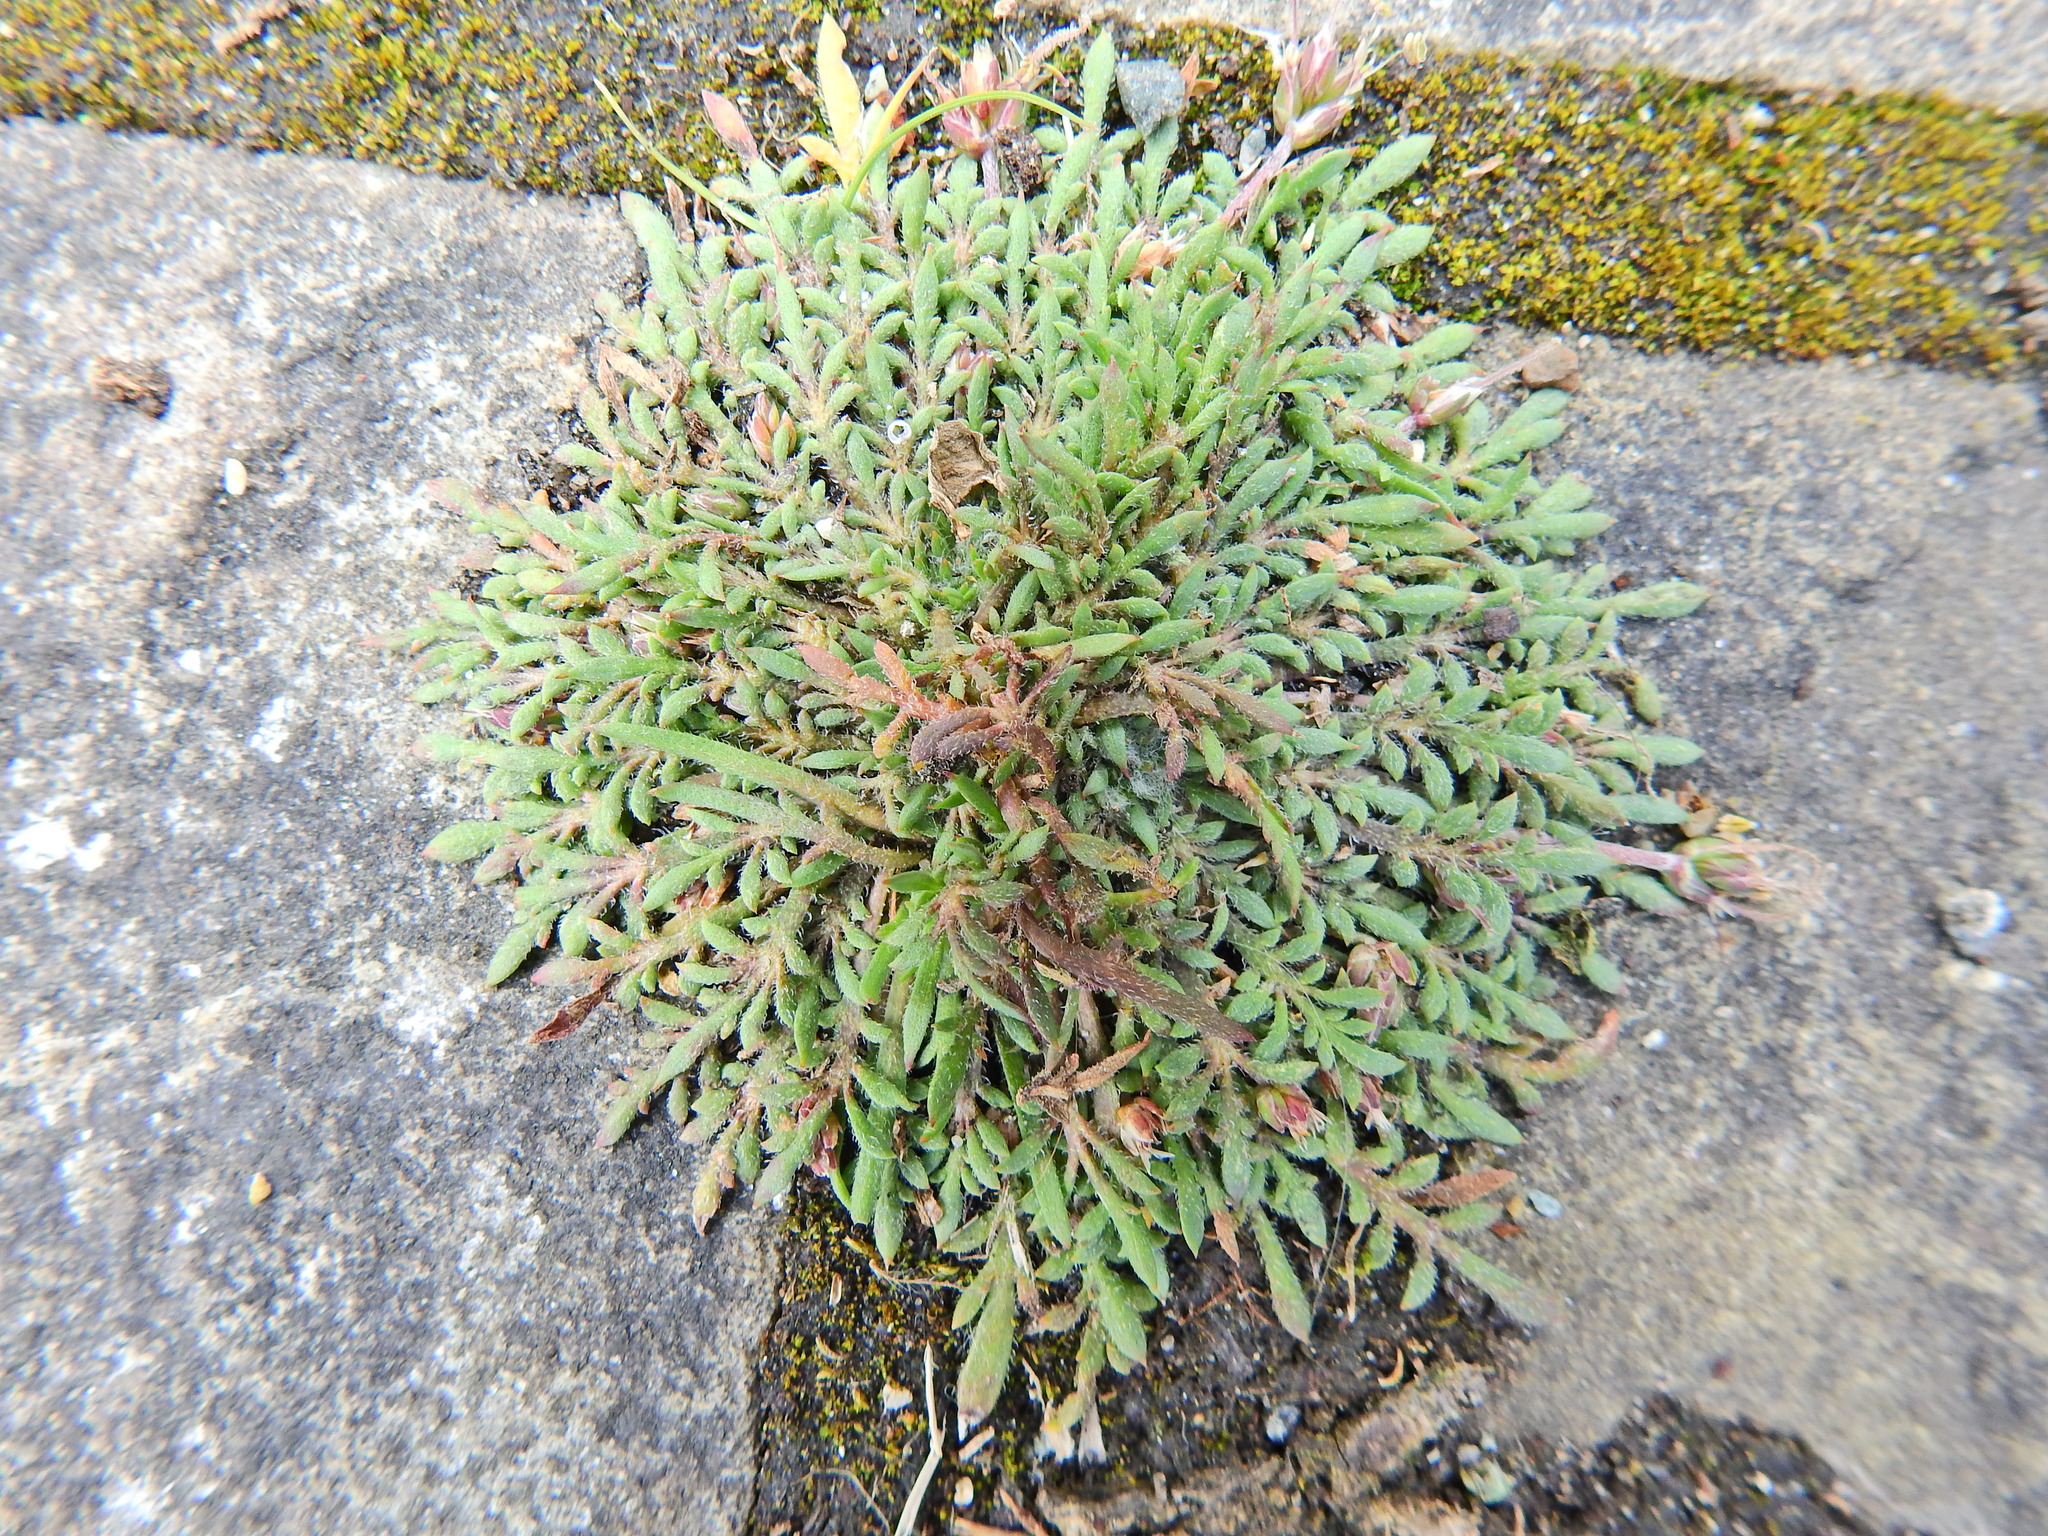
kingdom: Plantae
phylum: Tracheophyta
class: Magnoliopsida
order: Lamiales
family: Plantaginaceae
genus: Plantago
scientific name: Plantago coronopus
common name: Buck's-horn plantain
